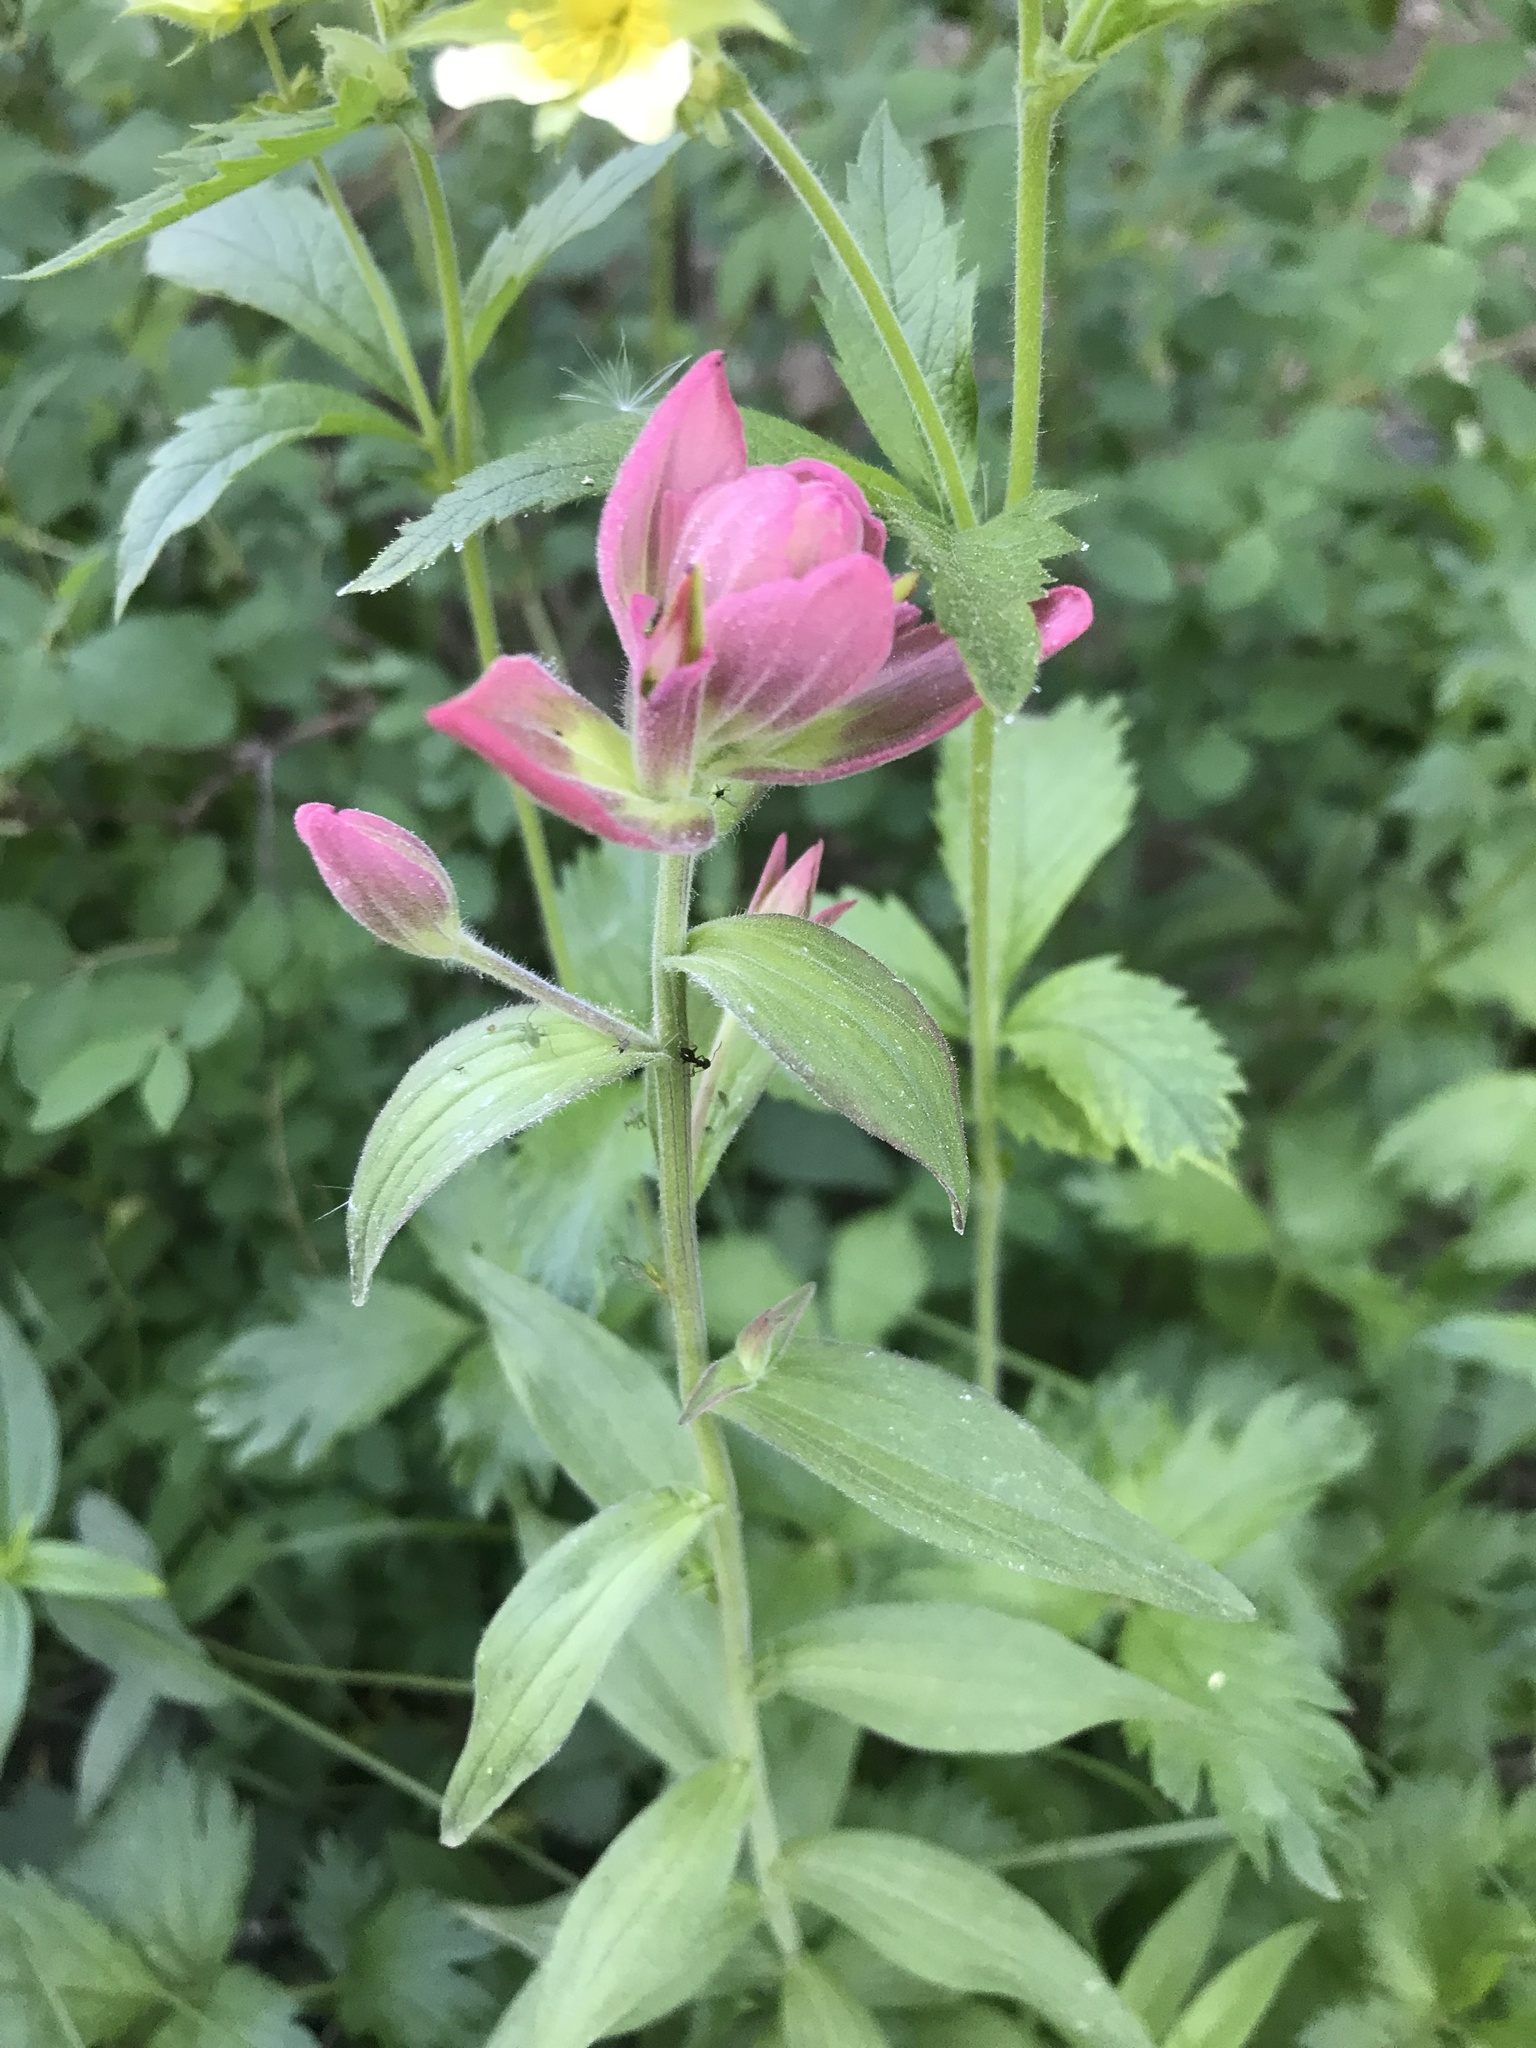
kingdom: Plantae
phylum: Tracheophyta
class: Magnoliopsida
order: Lamiales
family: Orobanchaceae
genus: Castilleja
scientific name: Castilleja rhexifolia
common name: Rocky mountain paintbrush
